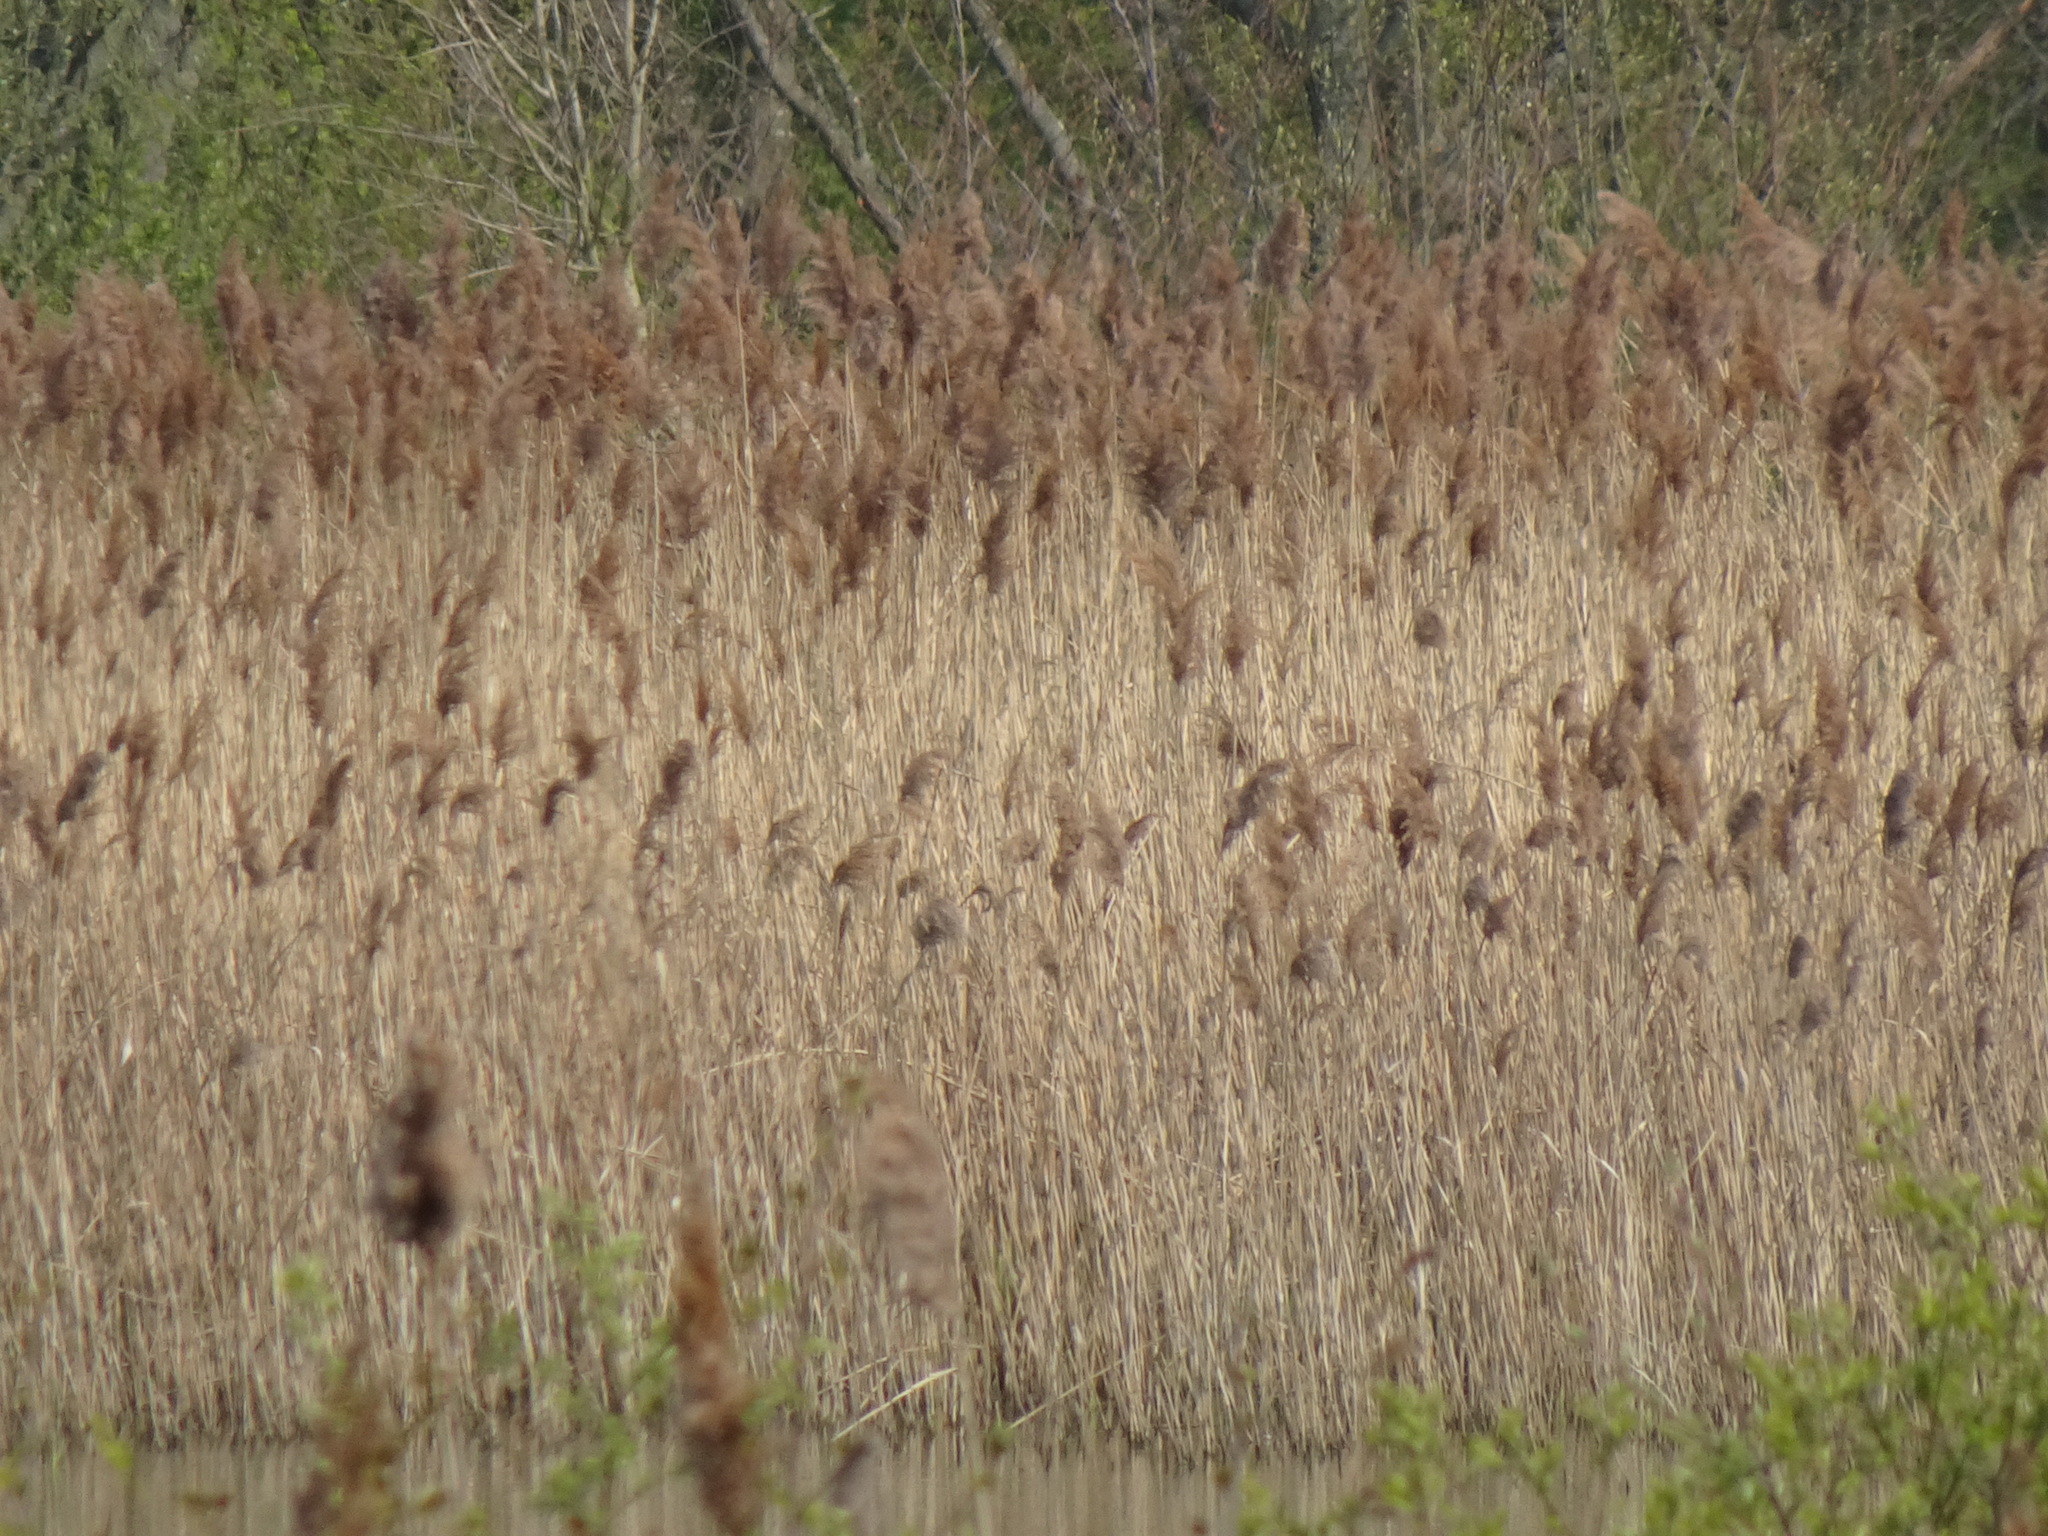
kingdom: Plantae
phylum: Tracheophyta
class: Liliopsida
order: Poales
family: Poaceae
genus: Phragmites
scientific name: Phragmites australis
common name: Common reed
